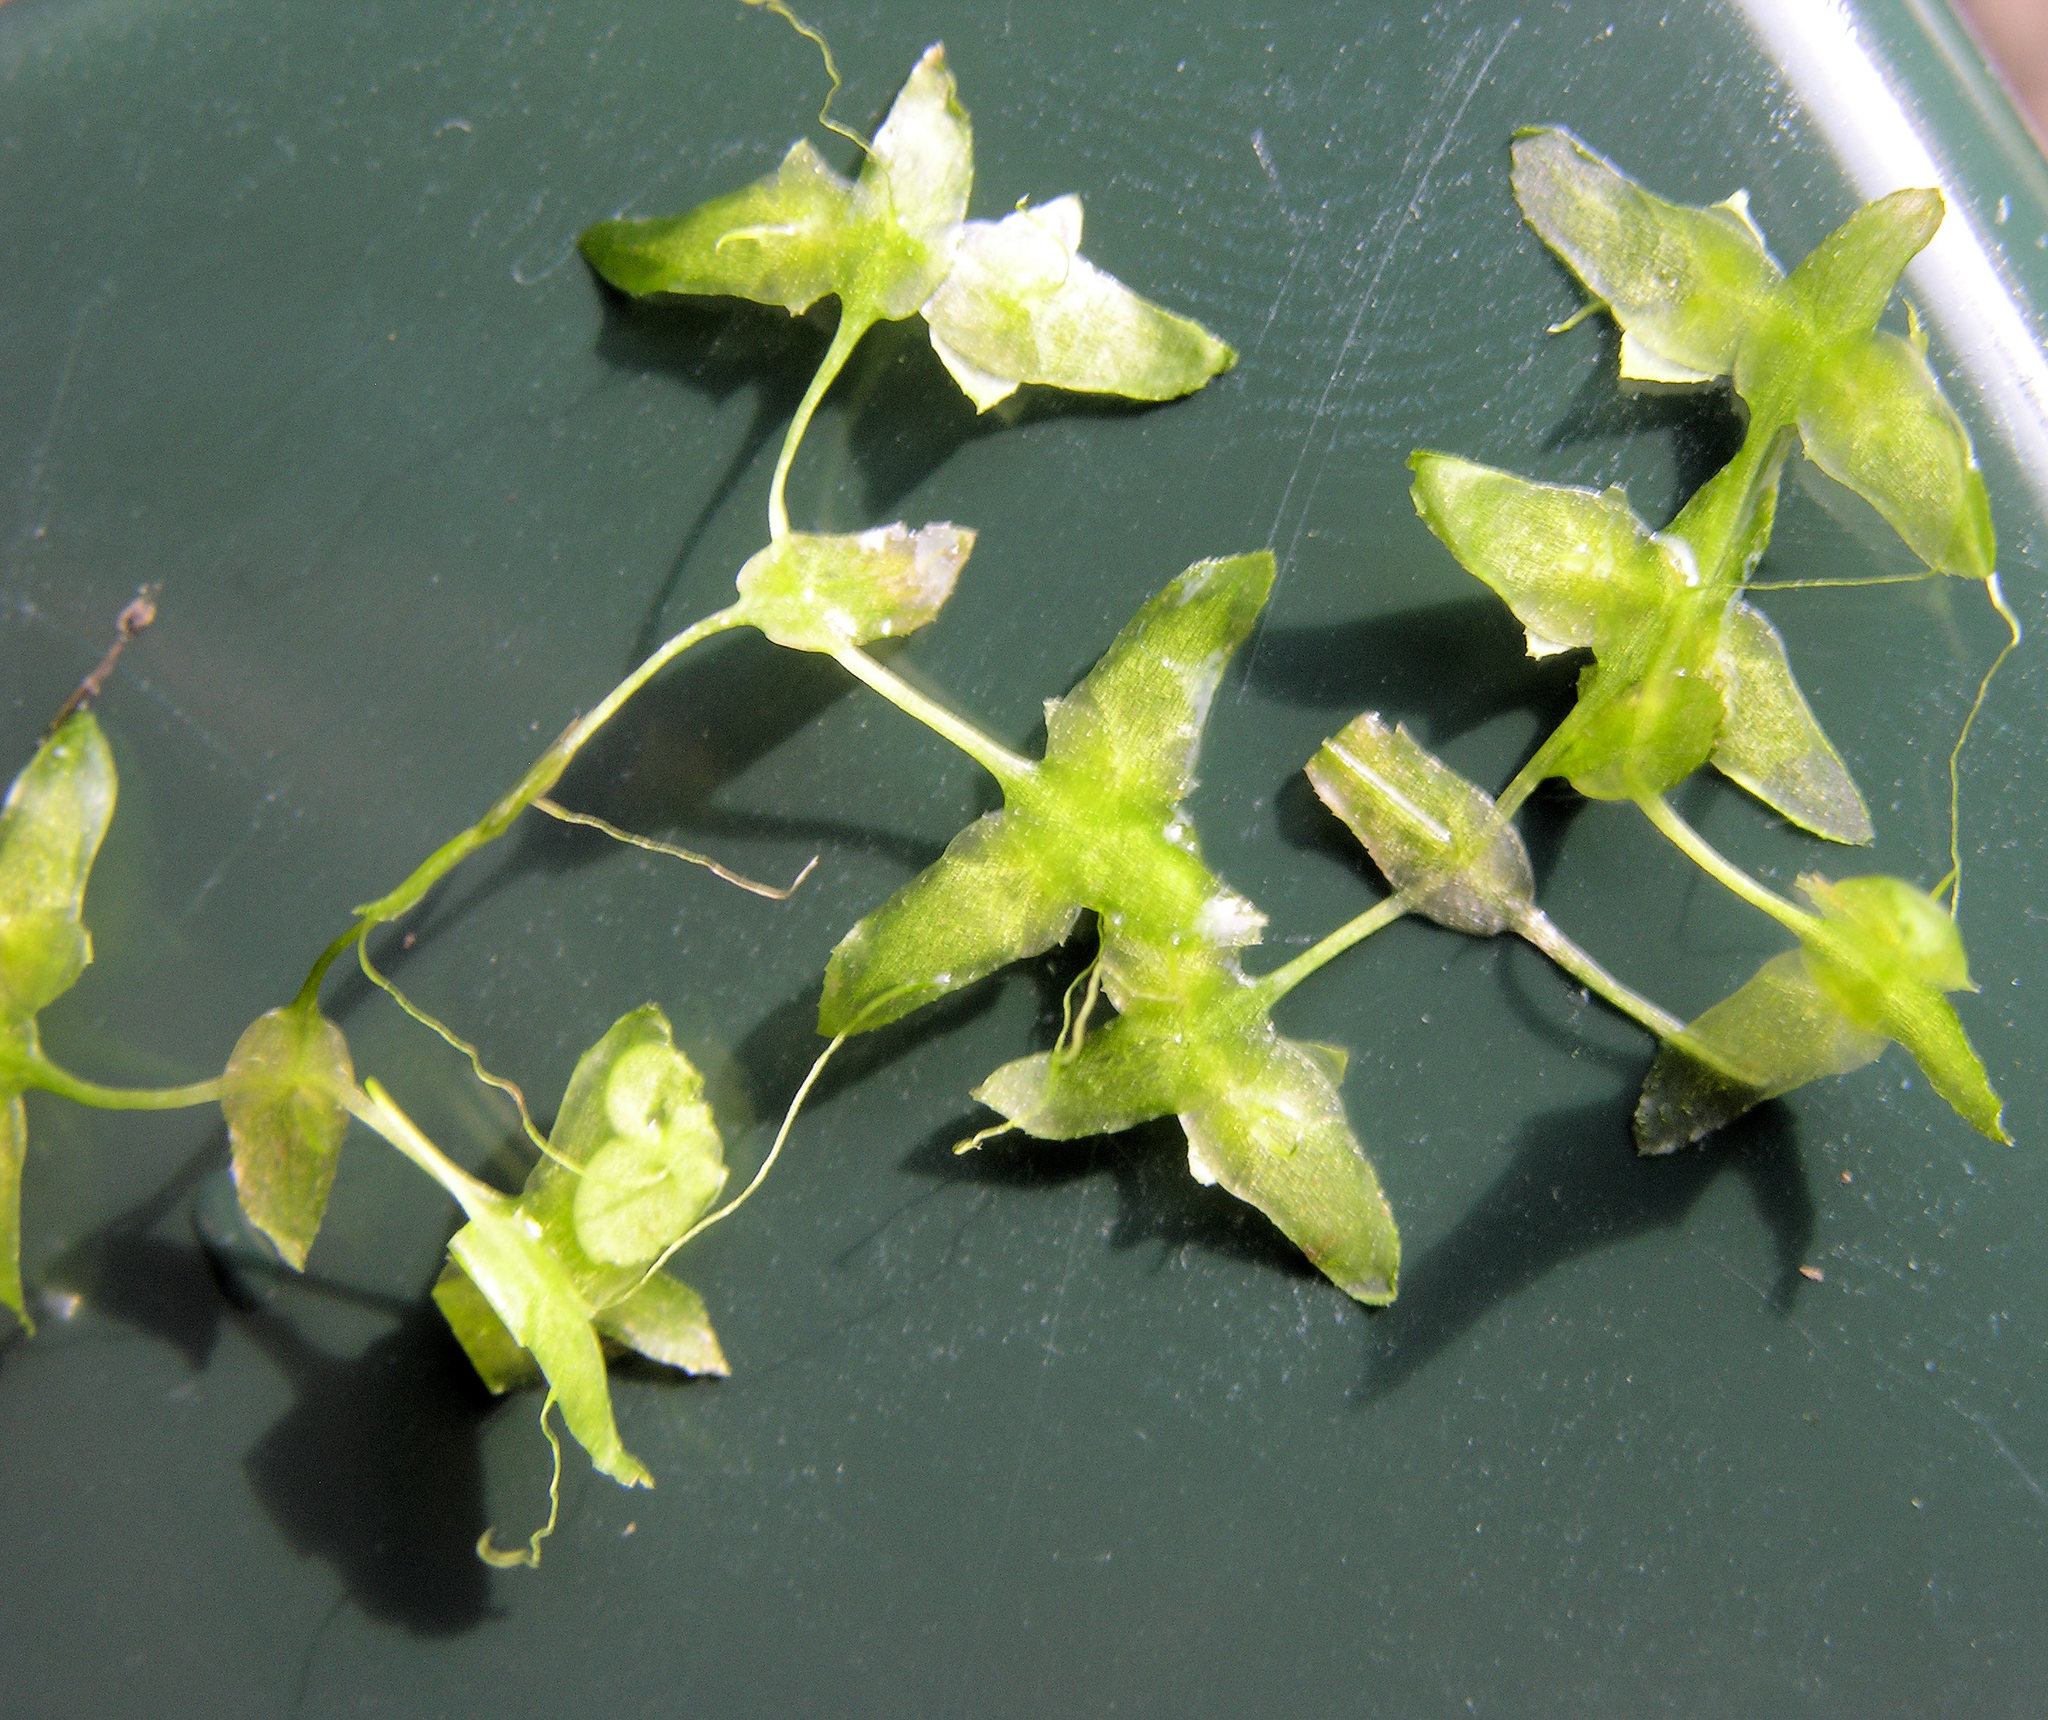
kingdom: Plantae
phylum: Tracheophyta
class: Liliopsida
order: Alismatales
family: Araceae
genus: Lemna
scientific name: Lemna trisulca
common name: Ivy-leaved duckweed
